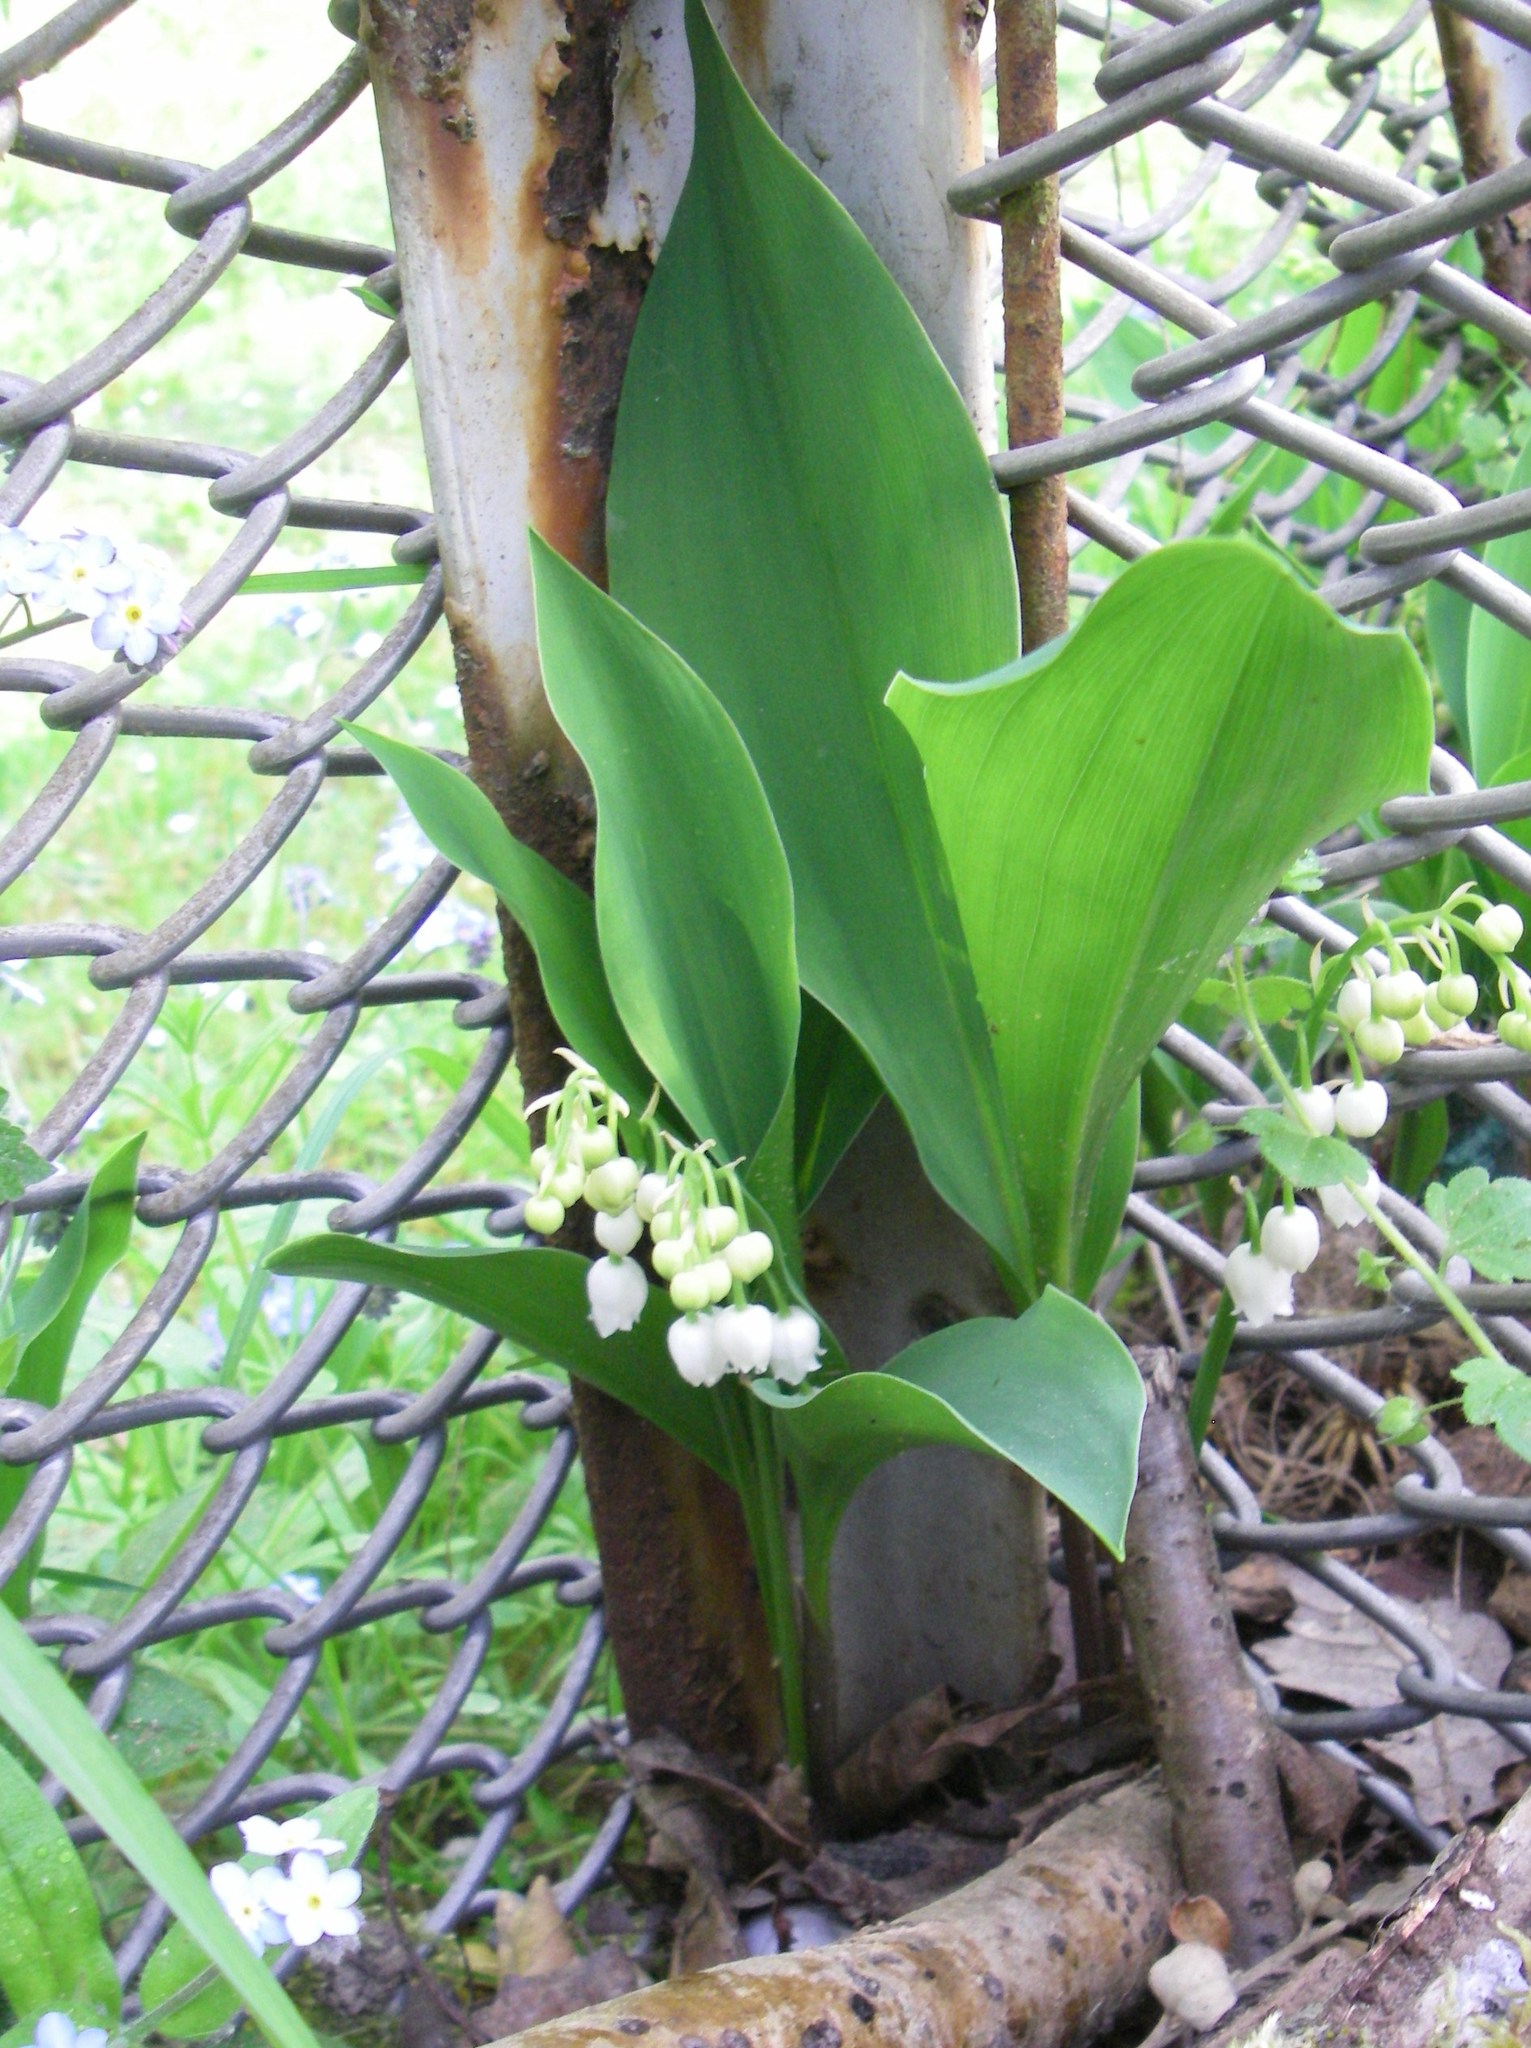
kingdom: Plantae
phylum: Tracheophyta
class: Liliopsida
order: Asparagales
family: Asparagaceae
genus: Convallaria
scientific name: Convallaria majalis
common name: Lily-of-the-valley
